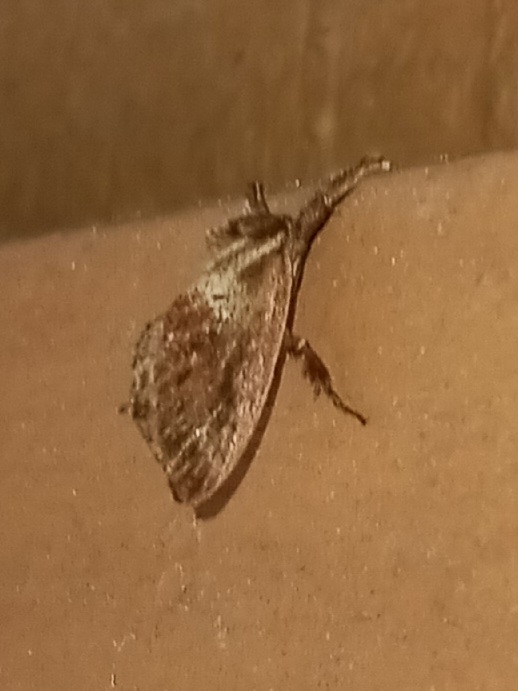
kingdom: Animalia
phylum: Arthropoda
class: Insecta
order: Lepidoptera
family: Limacodidae
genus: Adoneta
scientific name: Adoneta spinuloides
